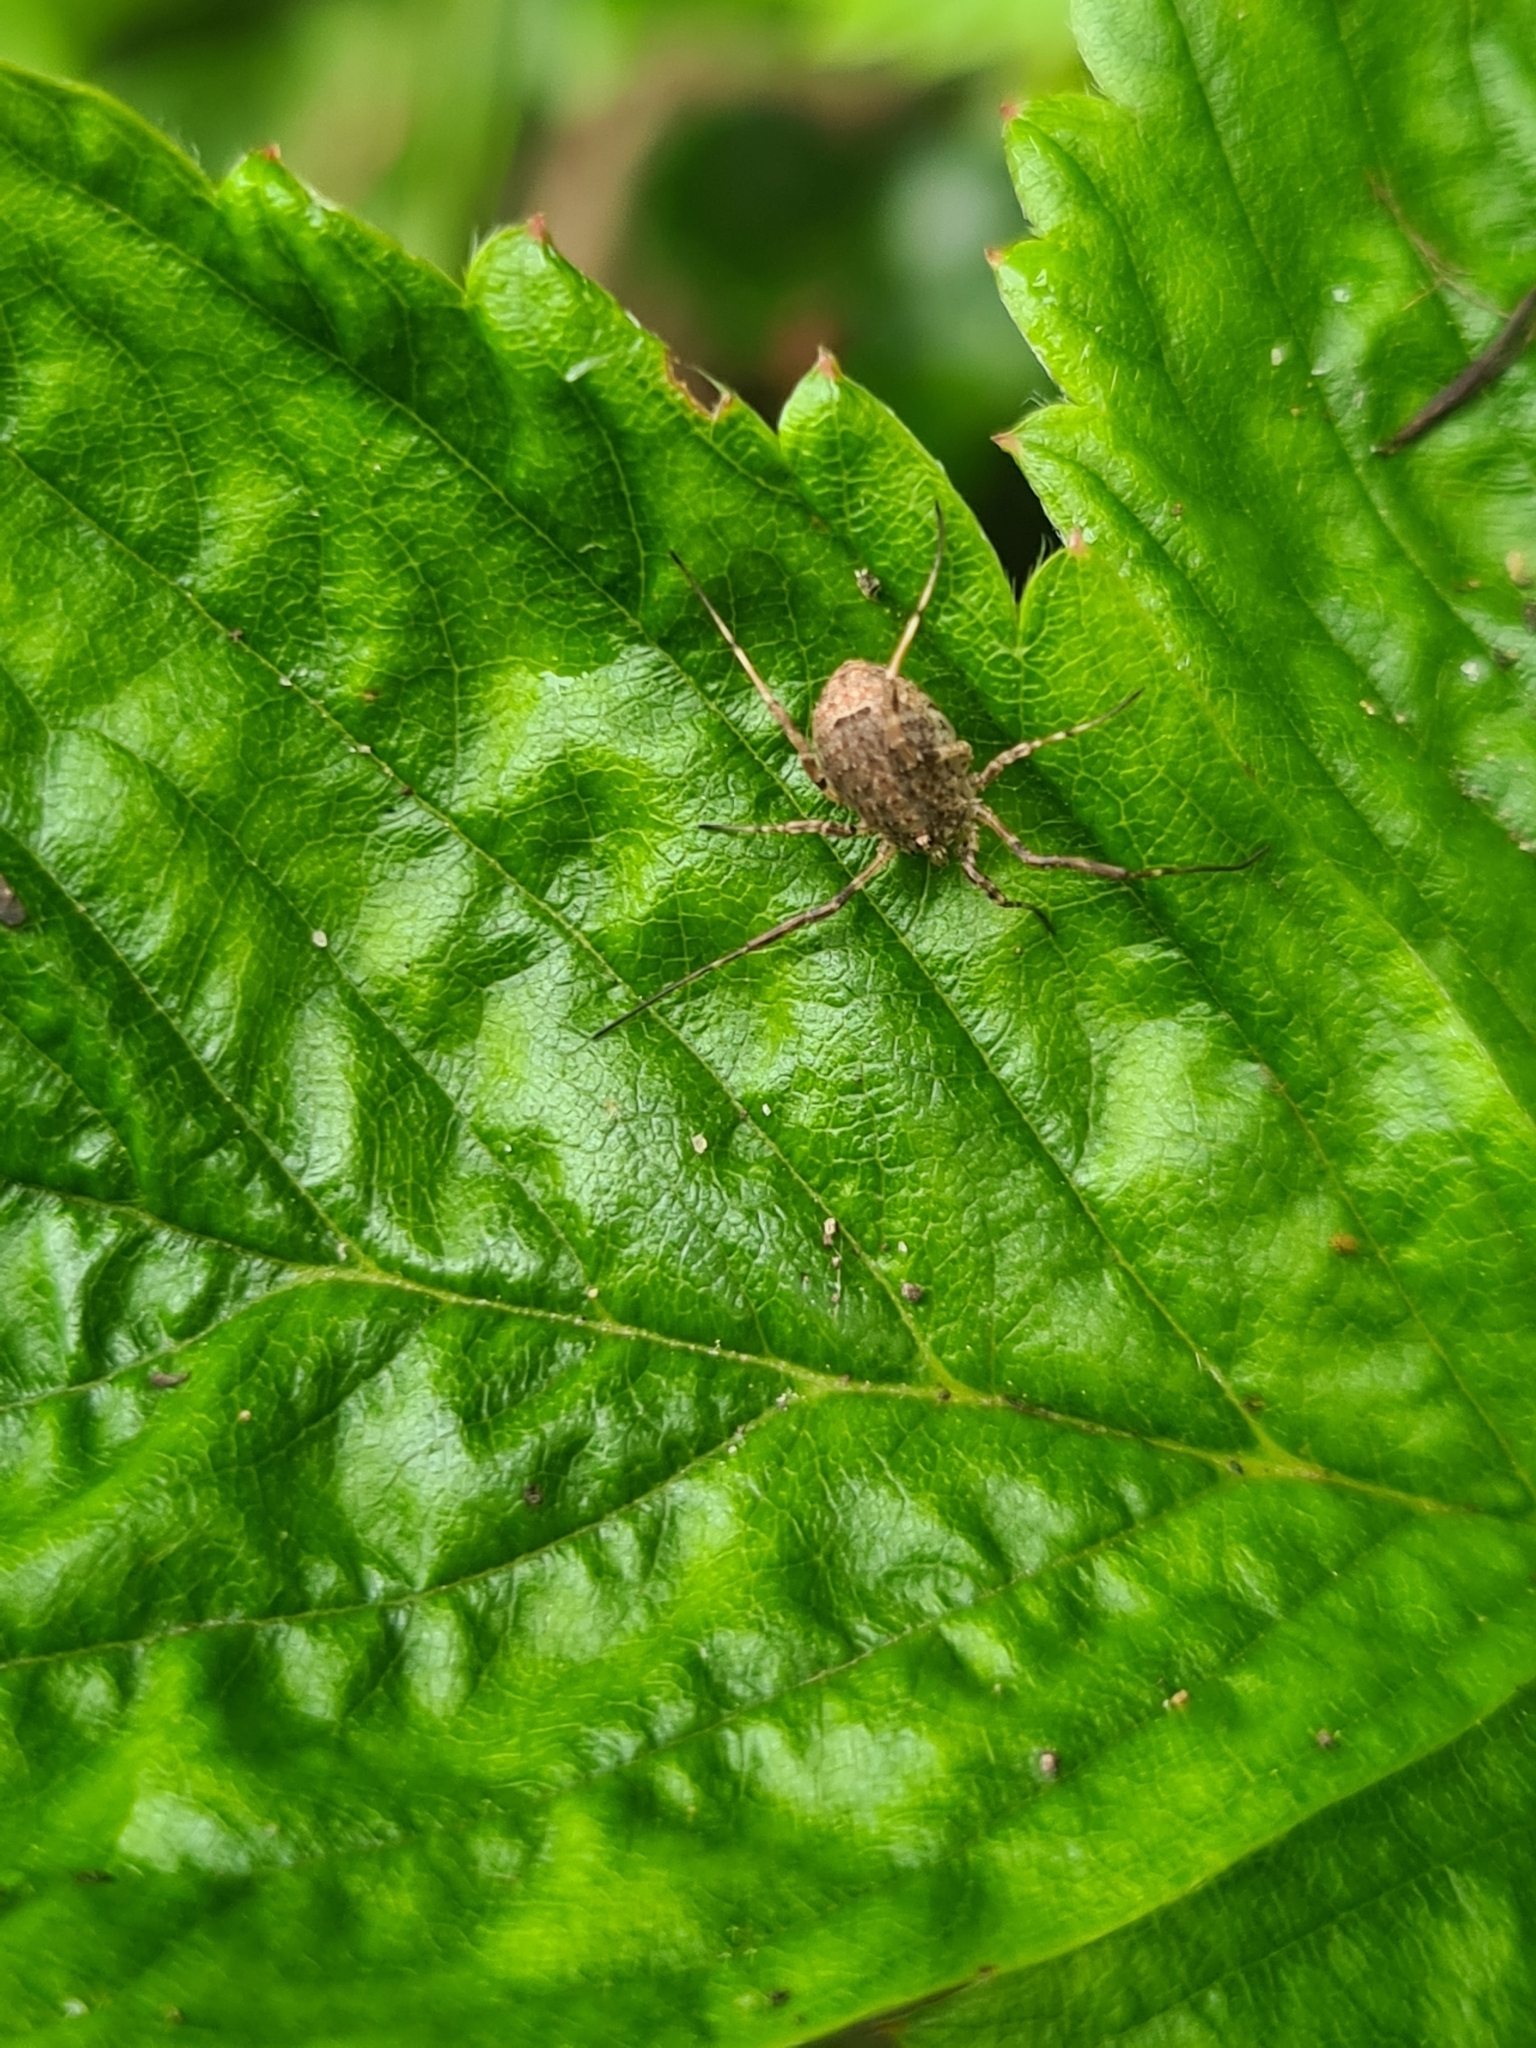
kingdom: Animalia
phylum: Arthropoda
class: Arachnida
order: Opiliones
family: Phalangiidae
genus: Odiellus
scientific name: Odiellus spinosus
